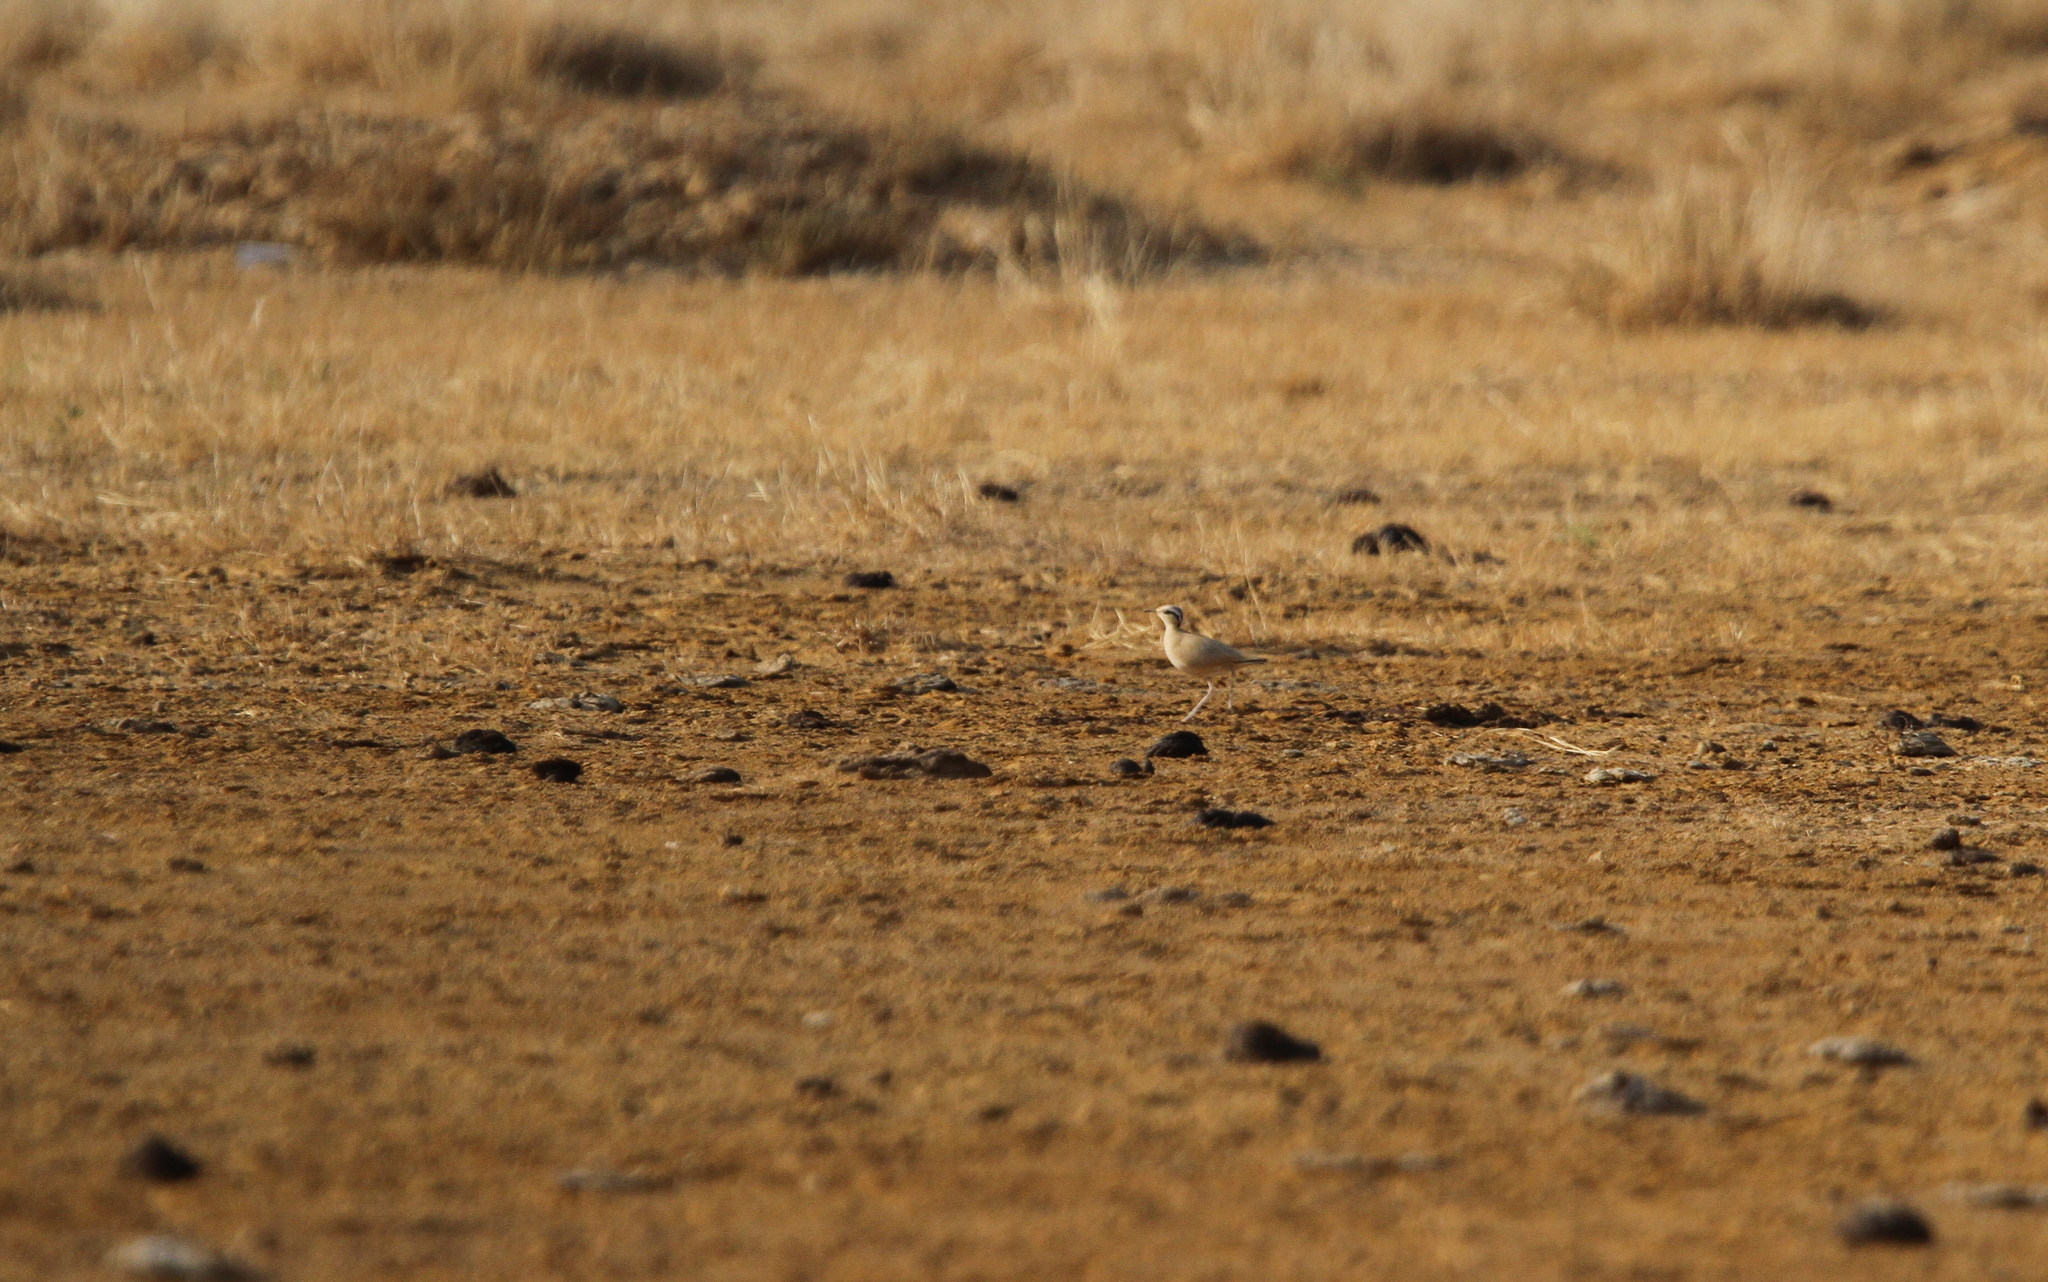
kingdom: Animalia
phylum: Chordata
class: Aves
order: Charadriiformes
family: Glareolidae
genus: Cursorius
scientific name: Cursorius cursor
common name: Cream-colored courser
